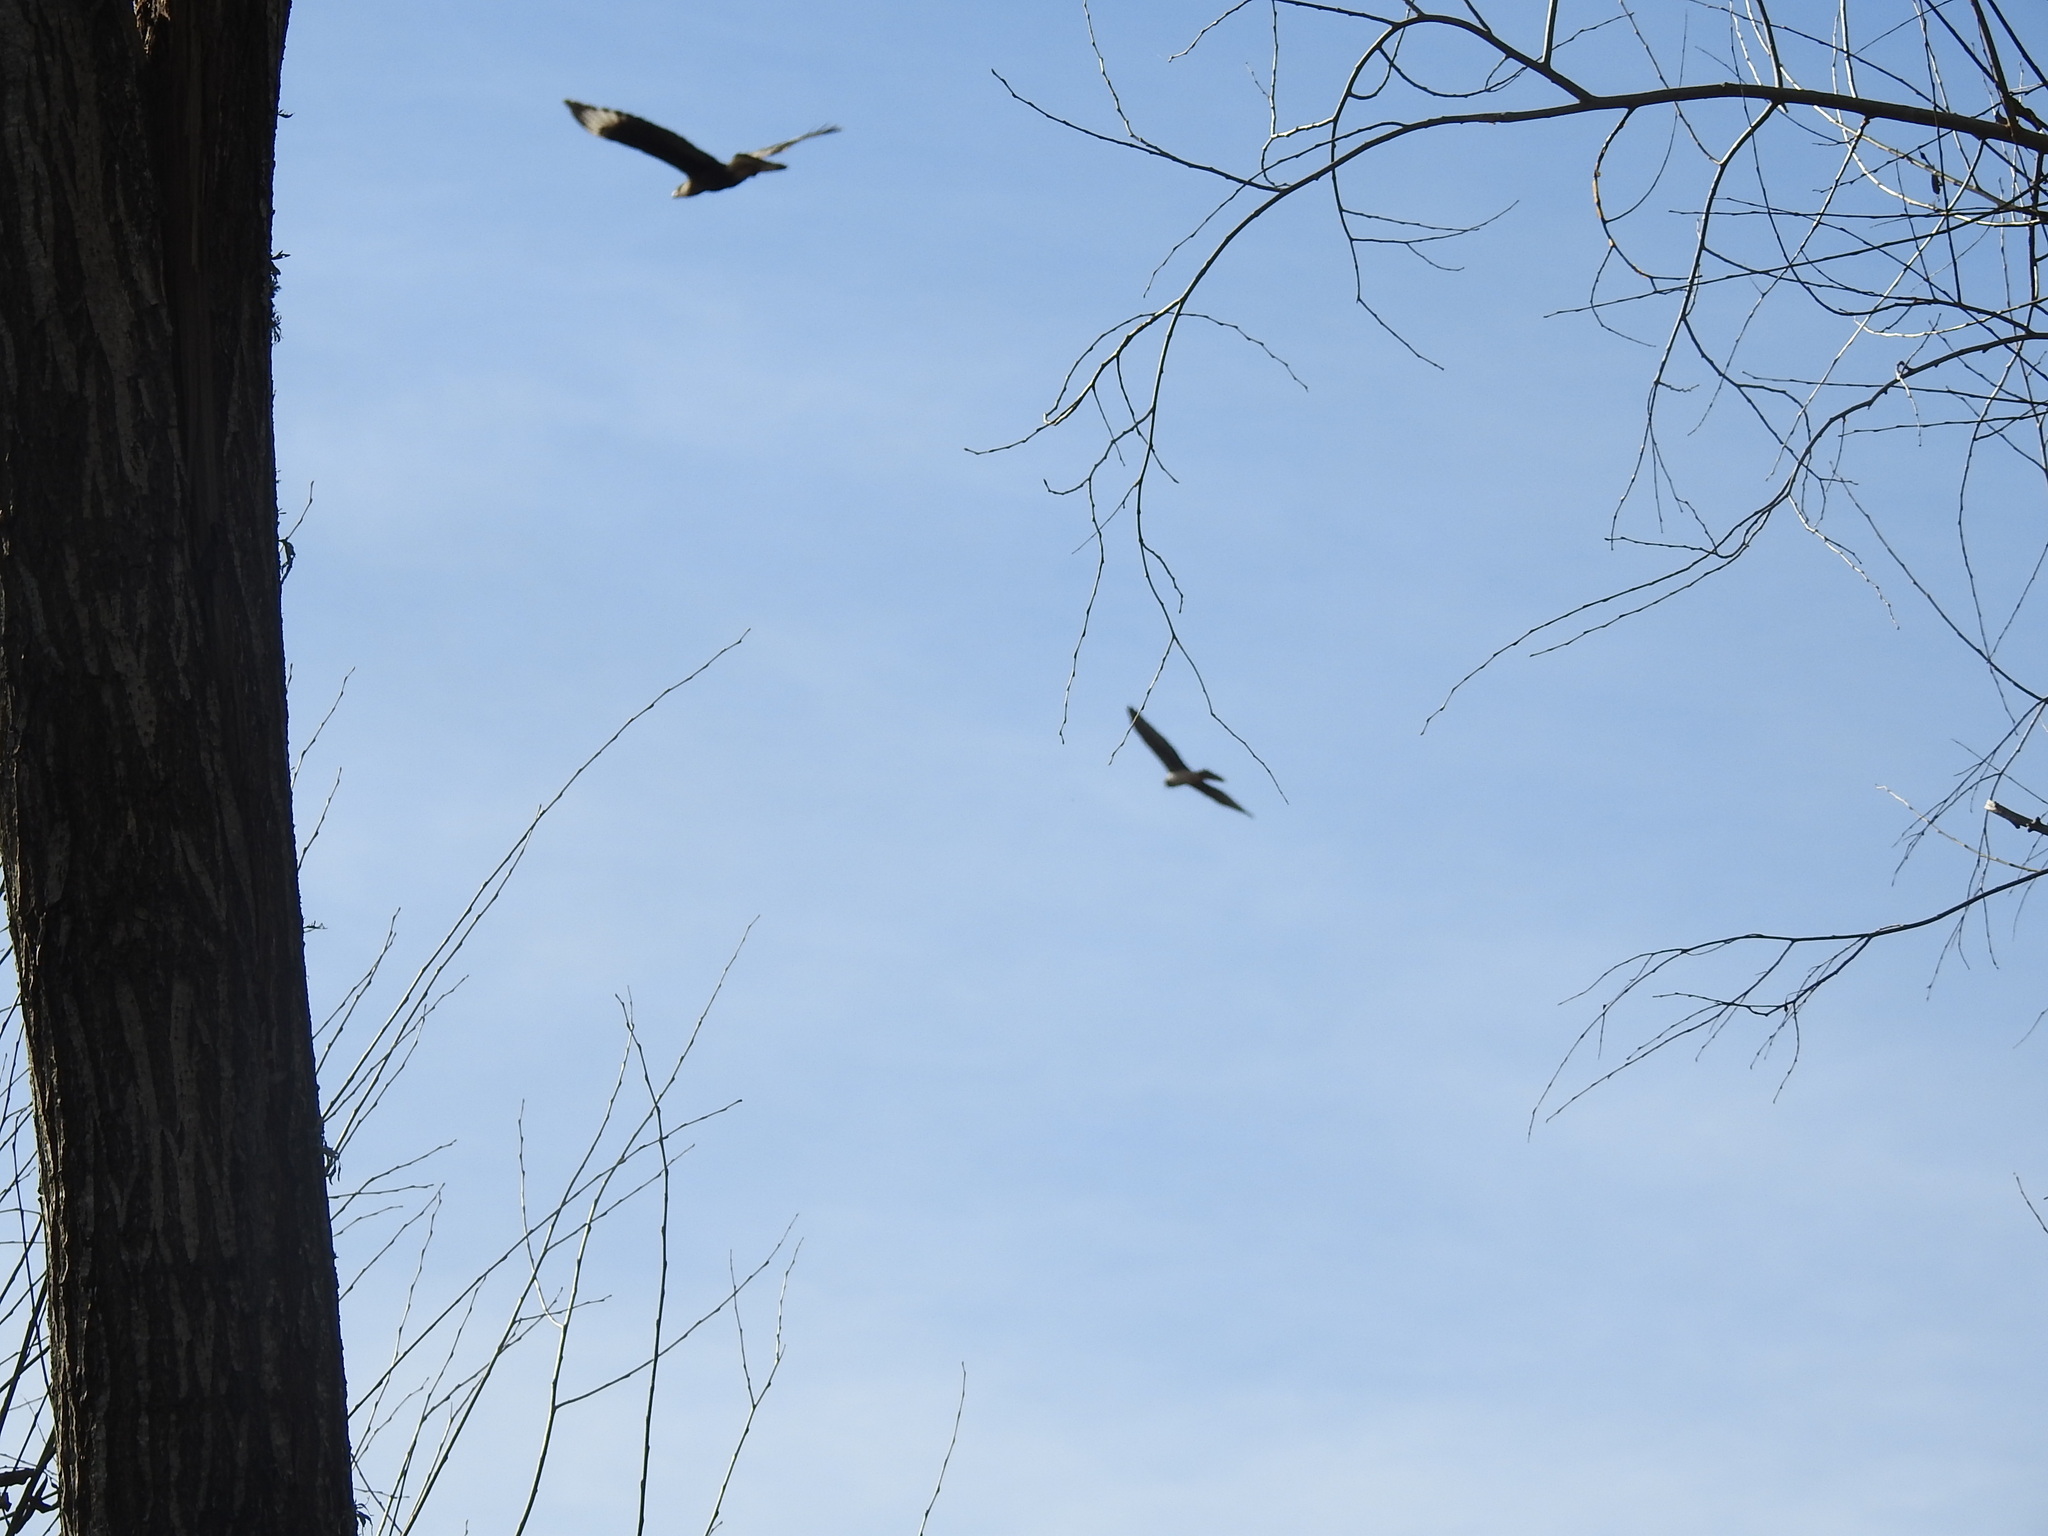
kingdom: Animalia
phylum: Chordata
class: Aves
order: Falconiformes
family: Falconidae
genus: Caracara
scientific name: Caracara plancus
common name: Southern caracara
